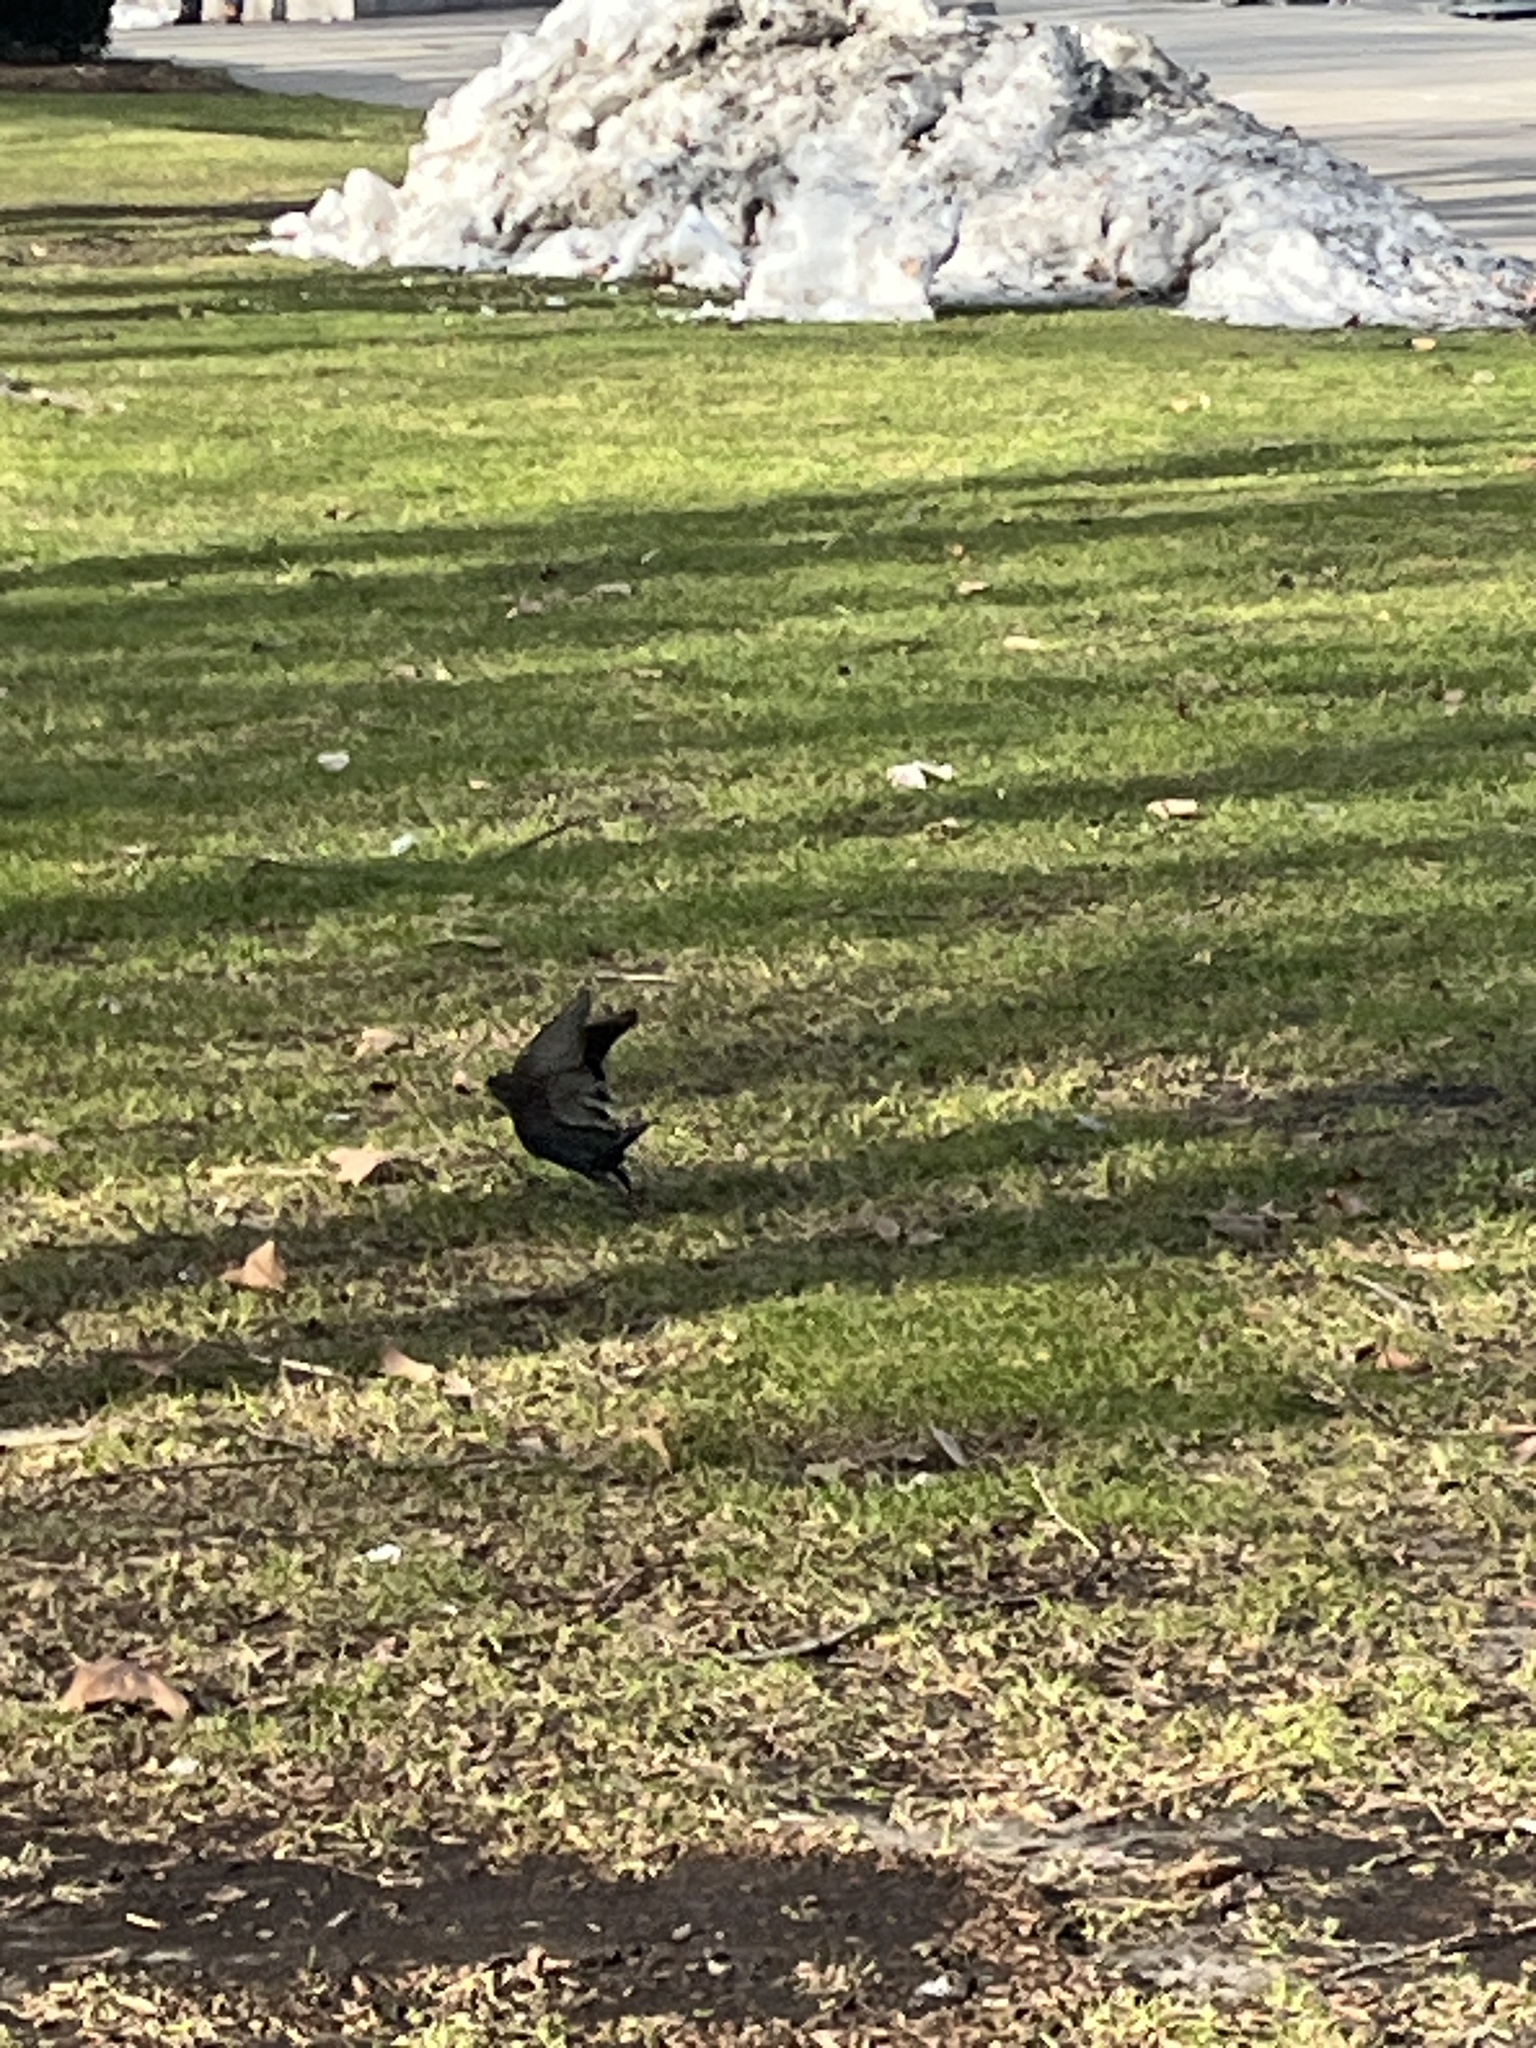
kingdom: Animalia
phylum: Chordata
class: Aves
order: Passeriformes
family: Sturnidae
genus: Sturnus
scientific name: Sturnus vulgaris
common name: Common starling
